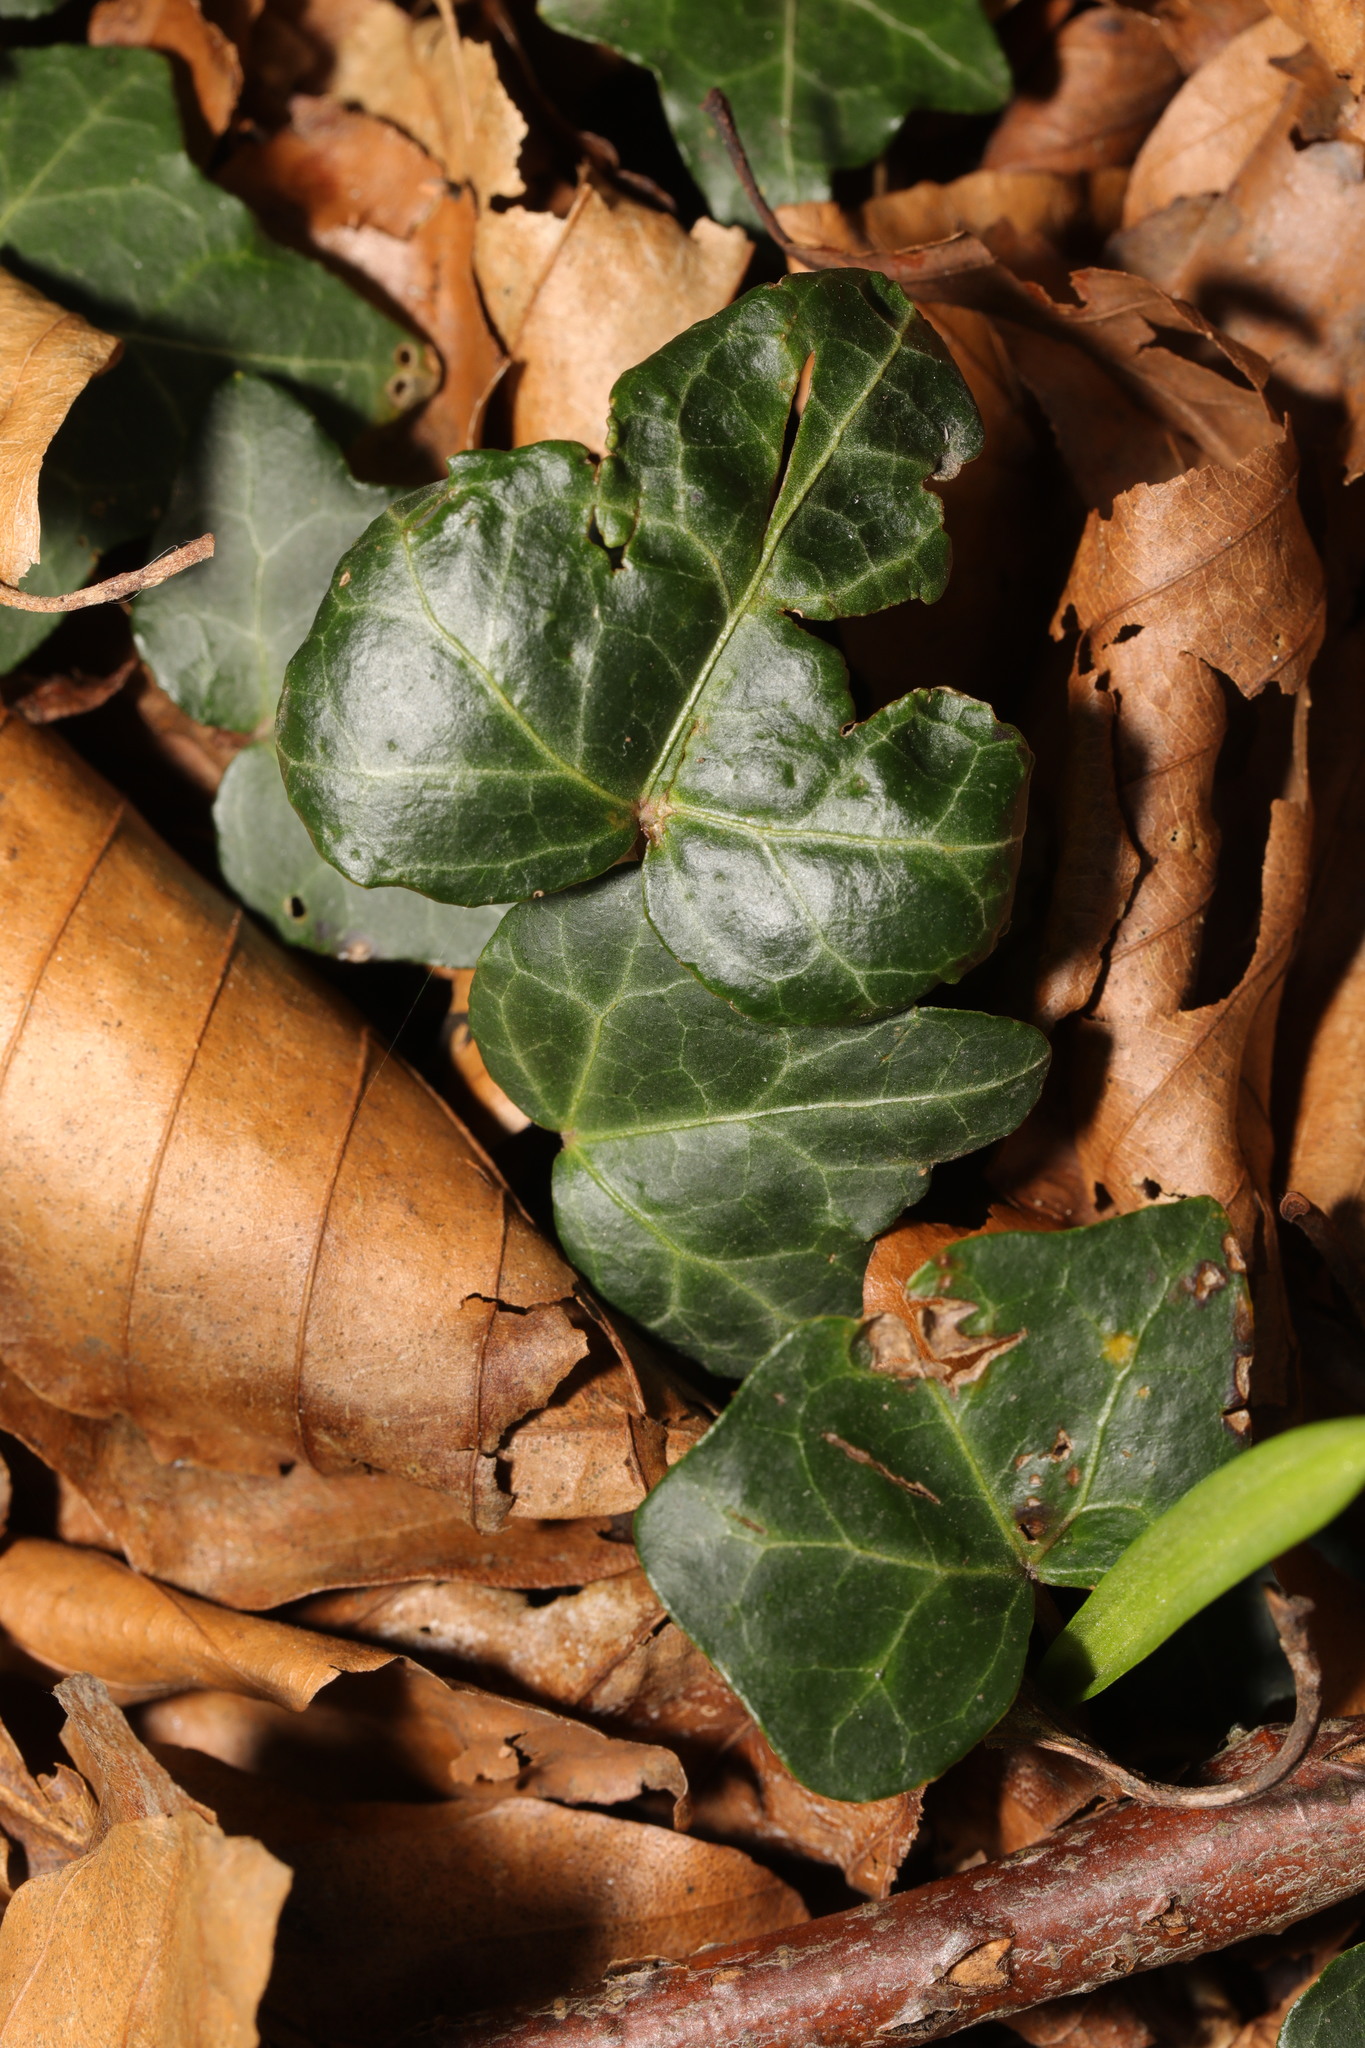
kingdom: Plantae
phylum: Tracheophyta
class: Magnoliopsida
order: Apiales
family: Araliaceae
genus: Hedera
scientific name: Hedera helix
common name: Ivy
